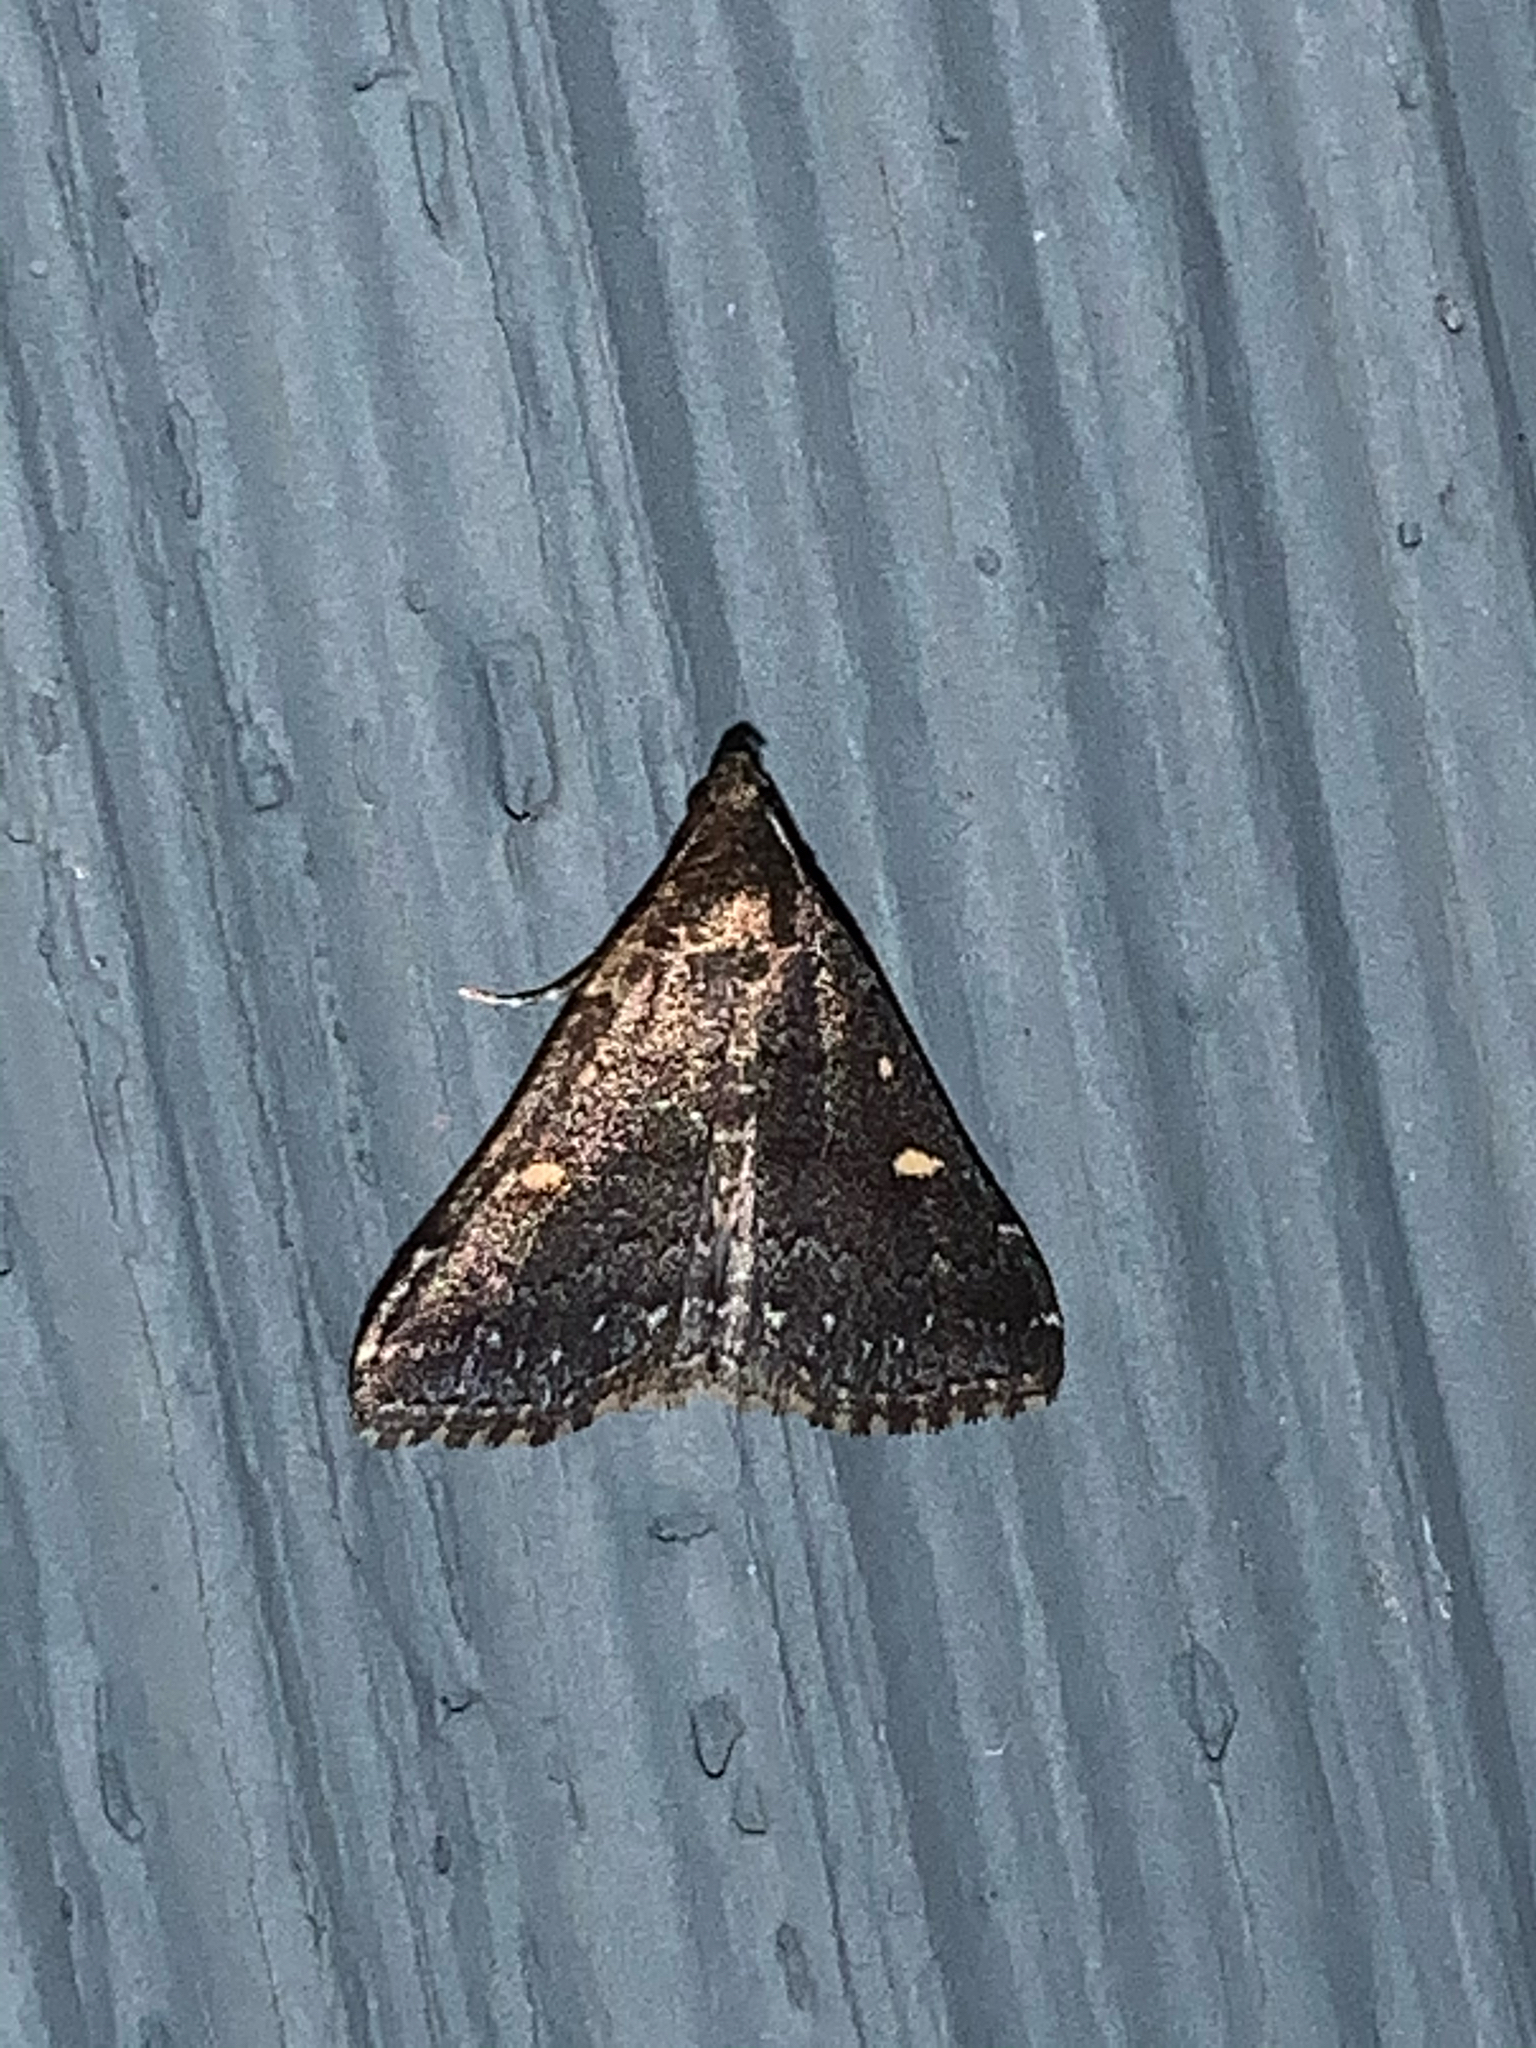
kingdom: Animalia
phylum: Arthropoda
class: Insecta
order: Lepidoptera
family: Erebidae
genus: Tetanolita
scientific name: Tetanolita mynesalis
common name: Smoky tetanolita moth
